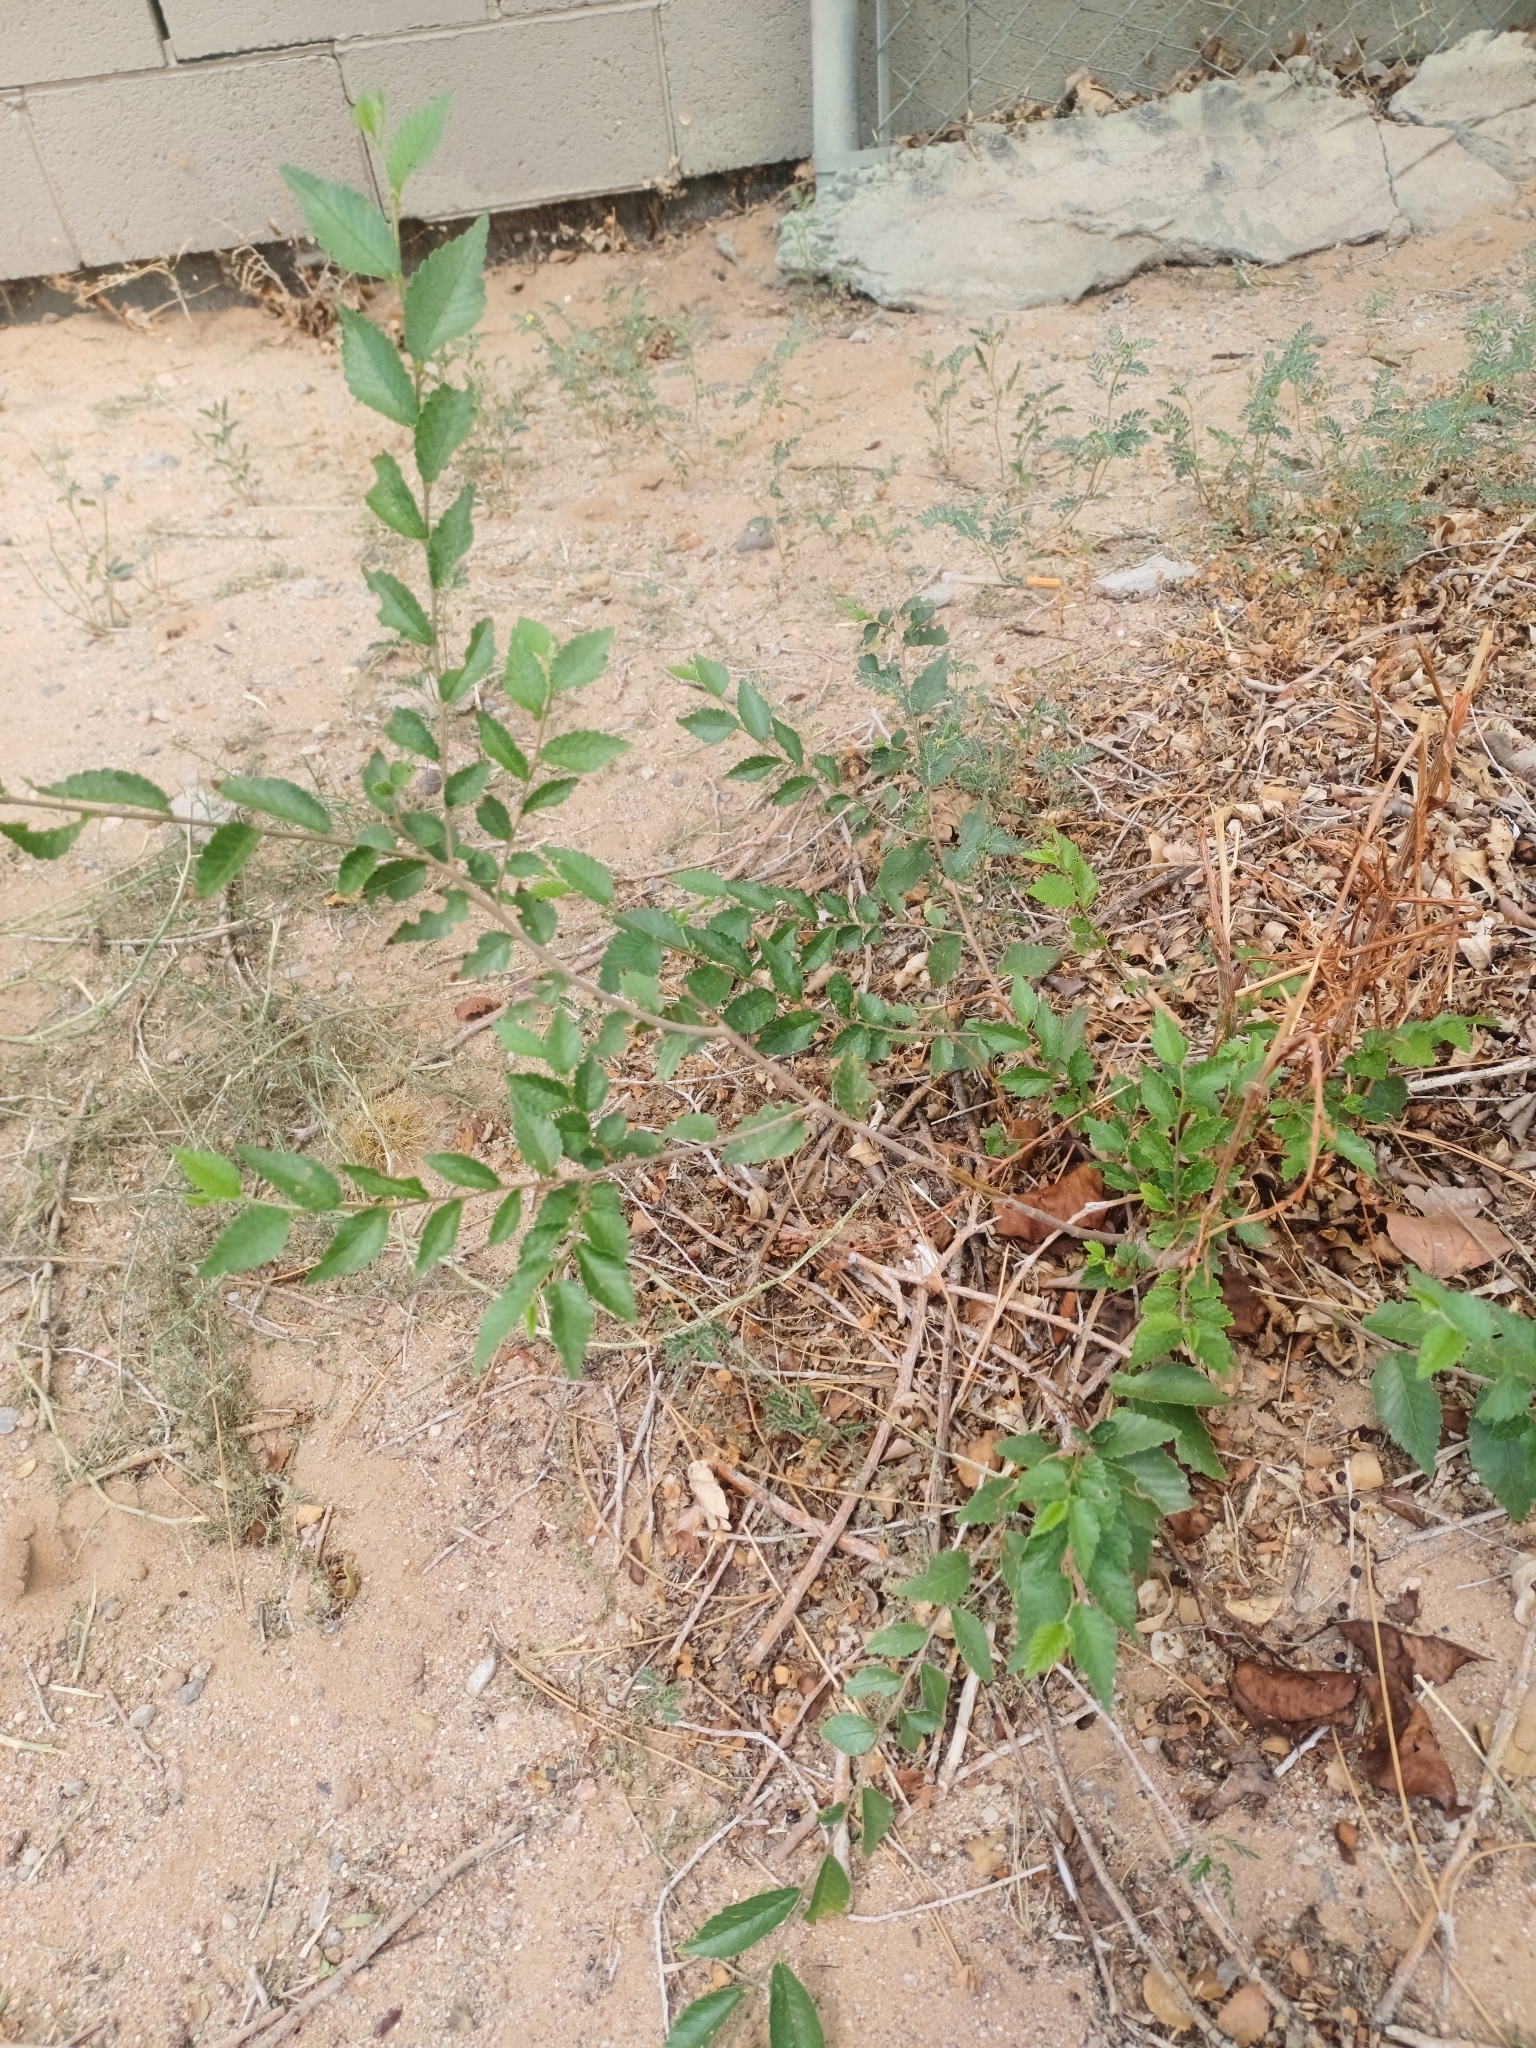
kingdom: Plantae
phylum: Tracheophyta
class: Magnoliopsida
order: Rosales
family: Ulmaceae
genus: Ulmus
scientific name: Ulmus pumila
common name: Siberian elm
